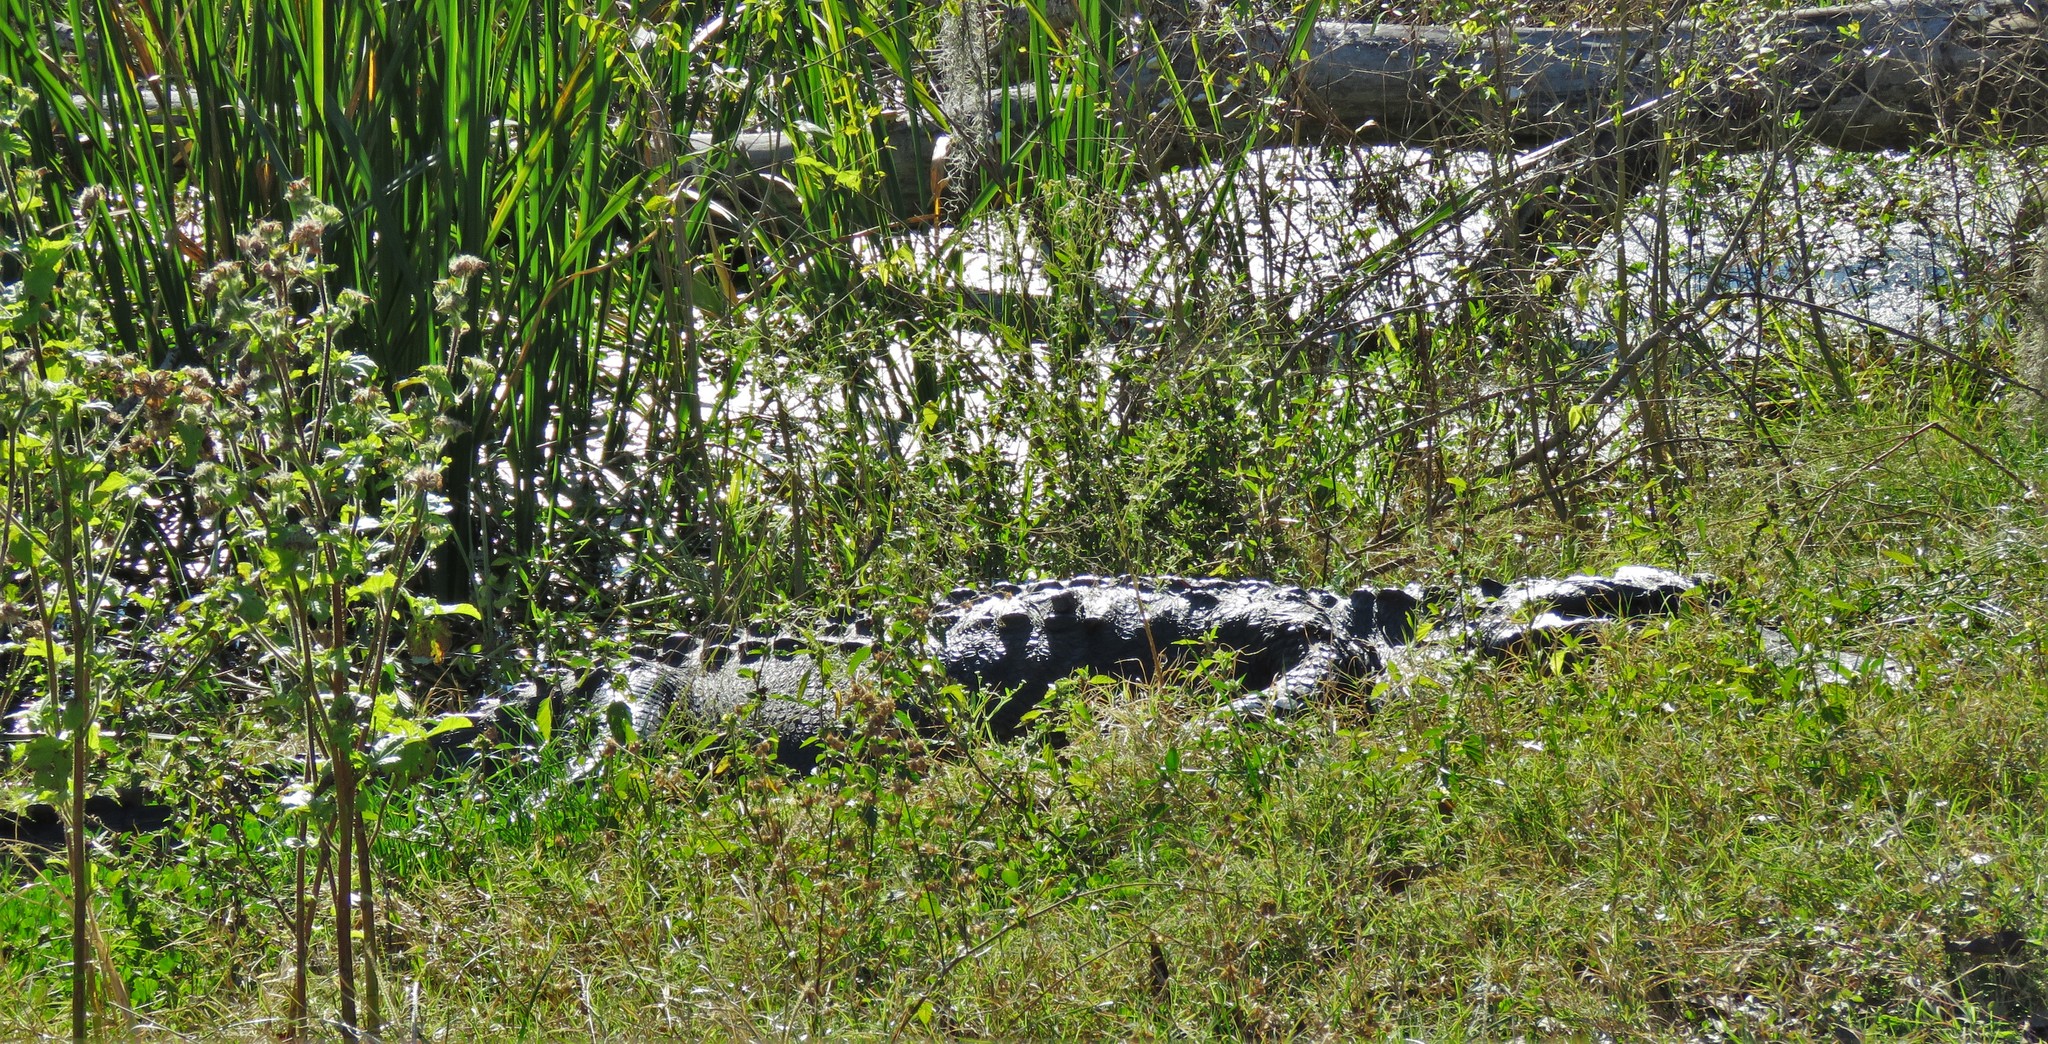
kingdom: Animalia
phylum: Chordata
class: Crocodylia
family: Alligatoridae
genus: Alligator
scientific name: Alligator mississippiensis
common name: American alligator
